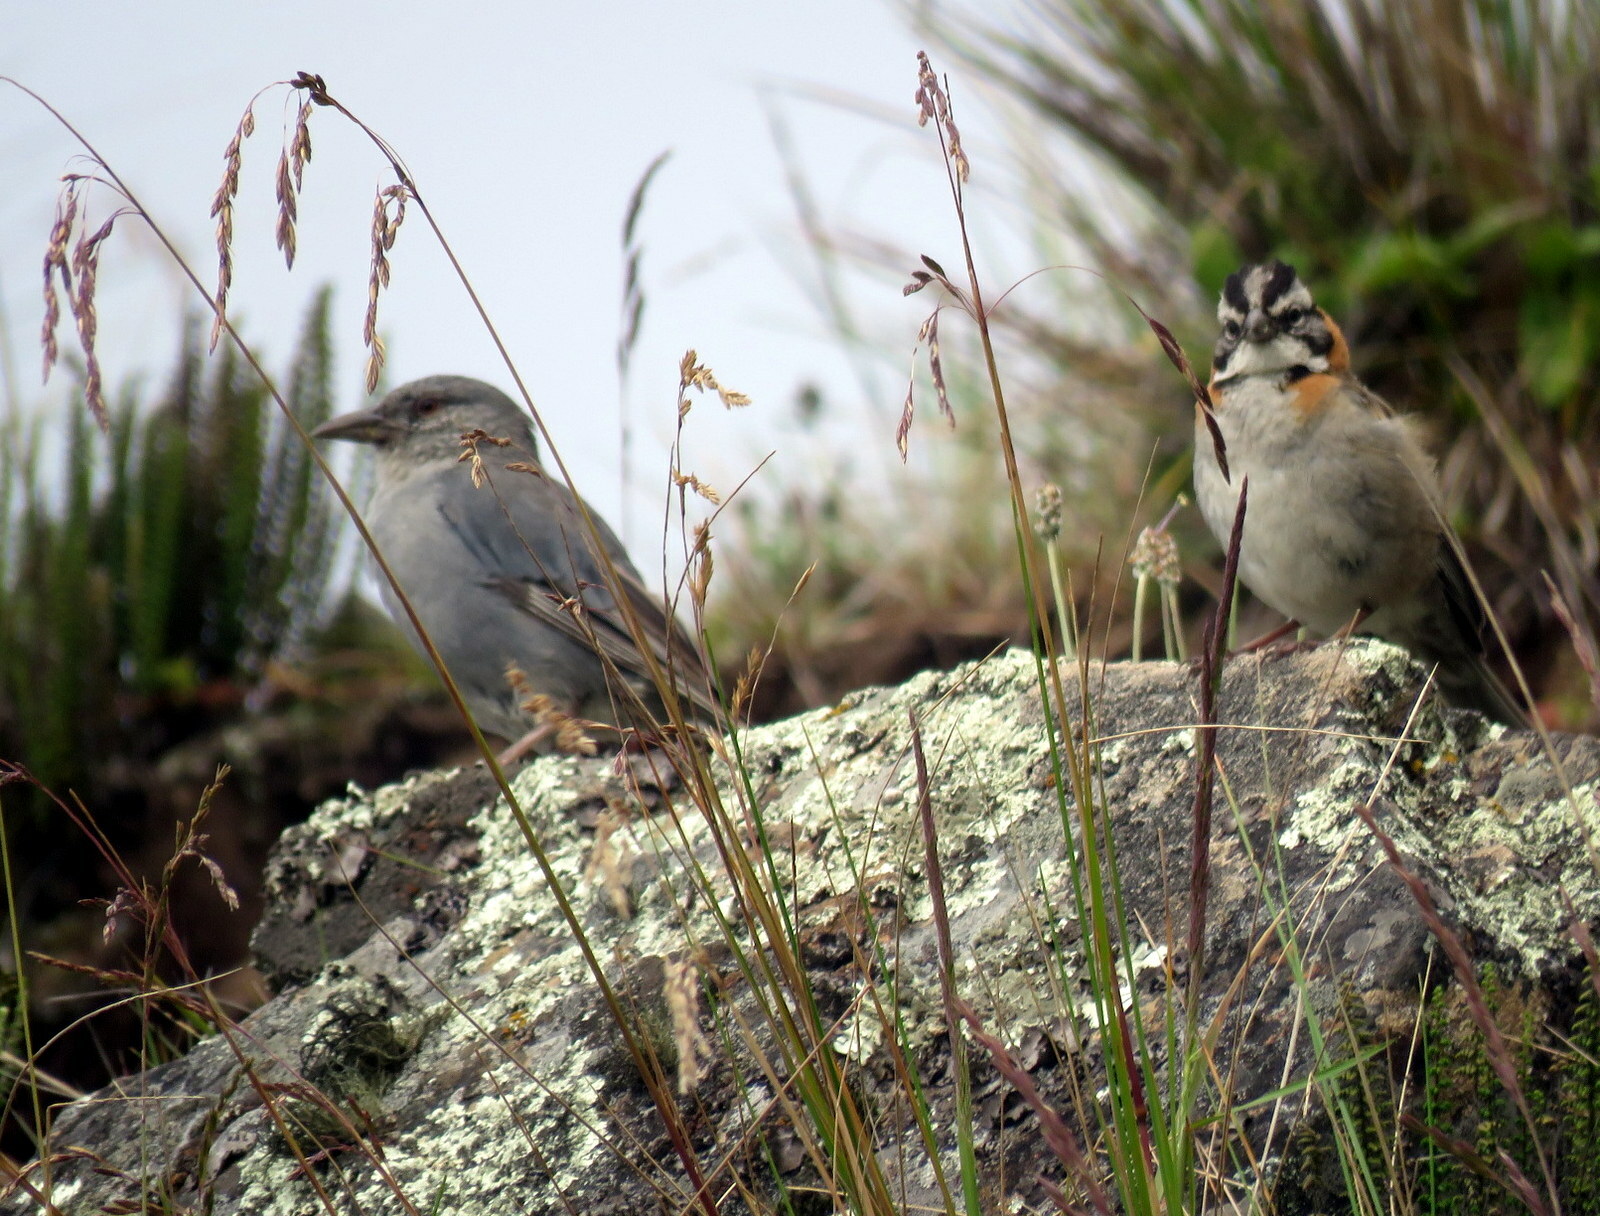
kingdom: Animalia
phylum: Chordata
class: Aves
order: Passeriformes
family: Thraupidae
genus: Idiopsar
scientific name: Idiopsar brachyurus
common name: Short-tailed finch
